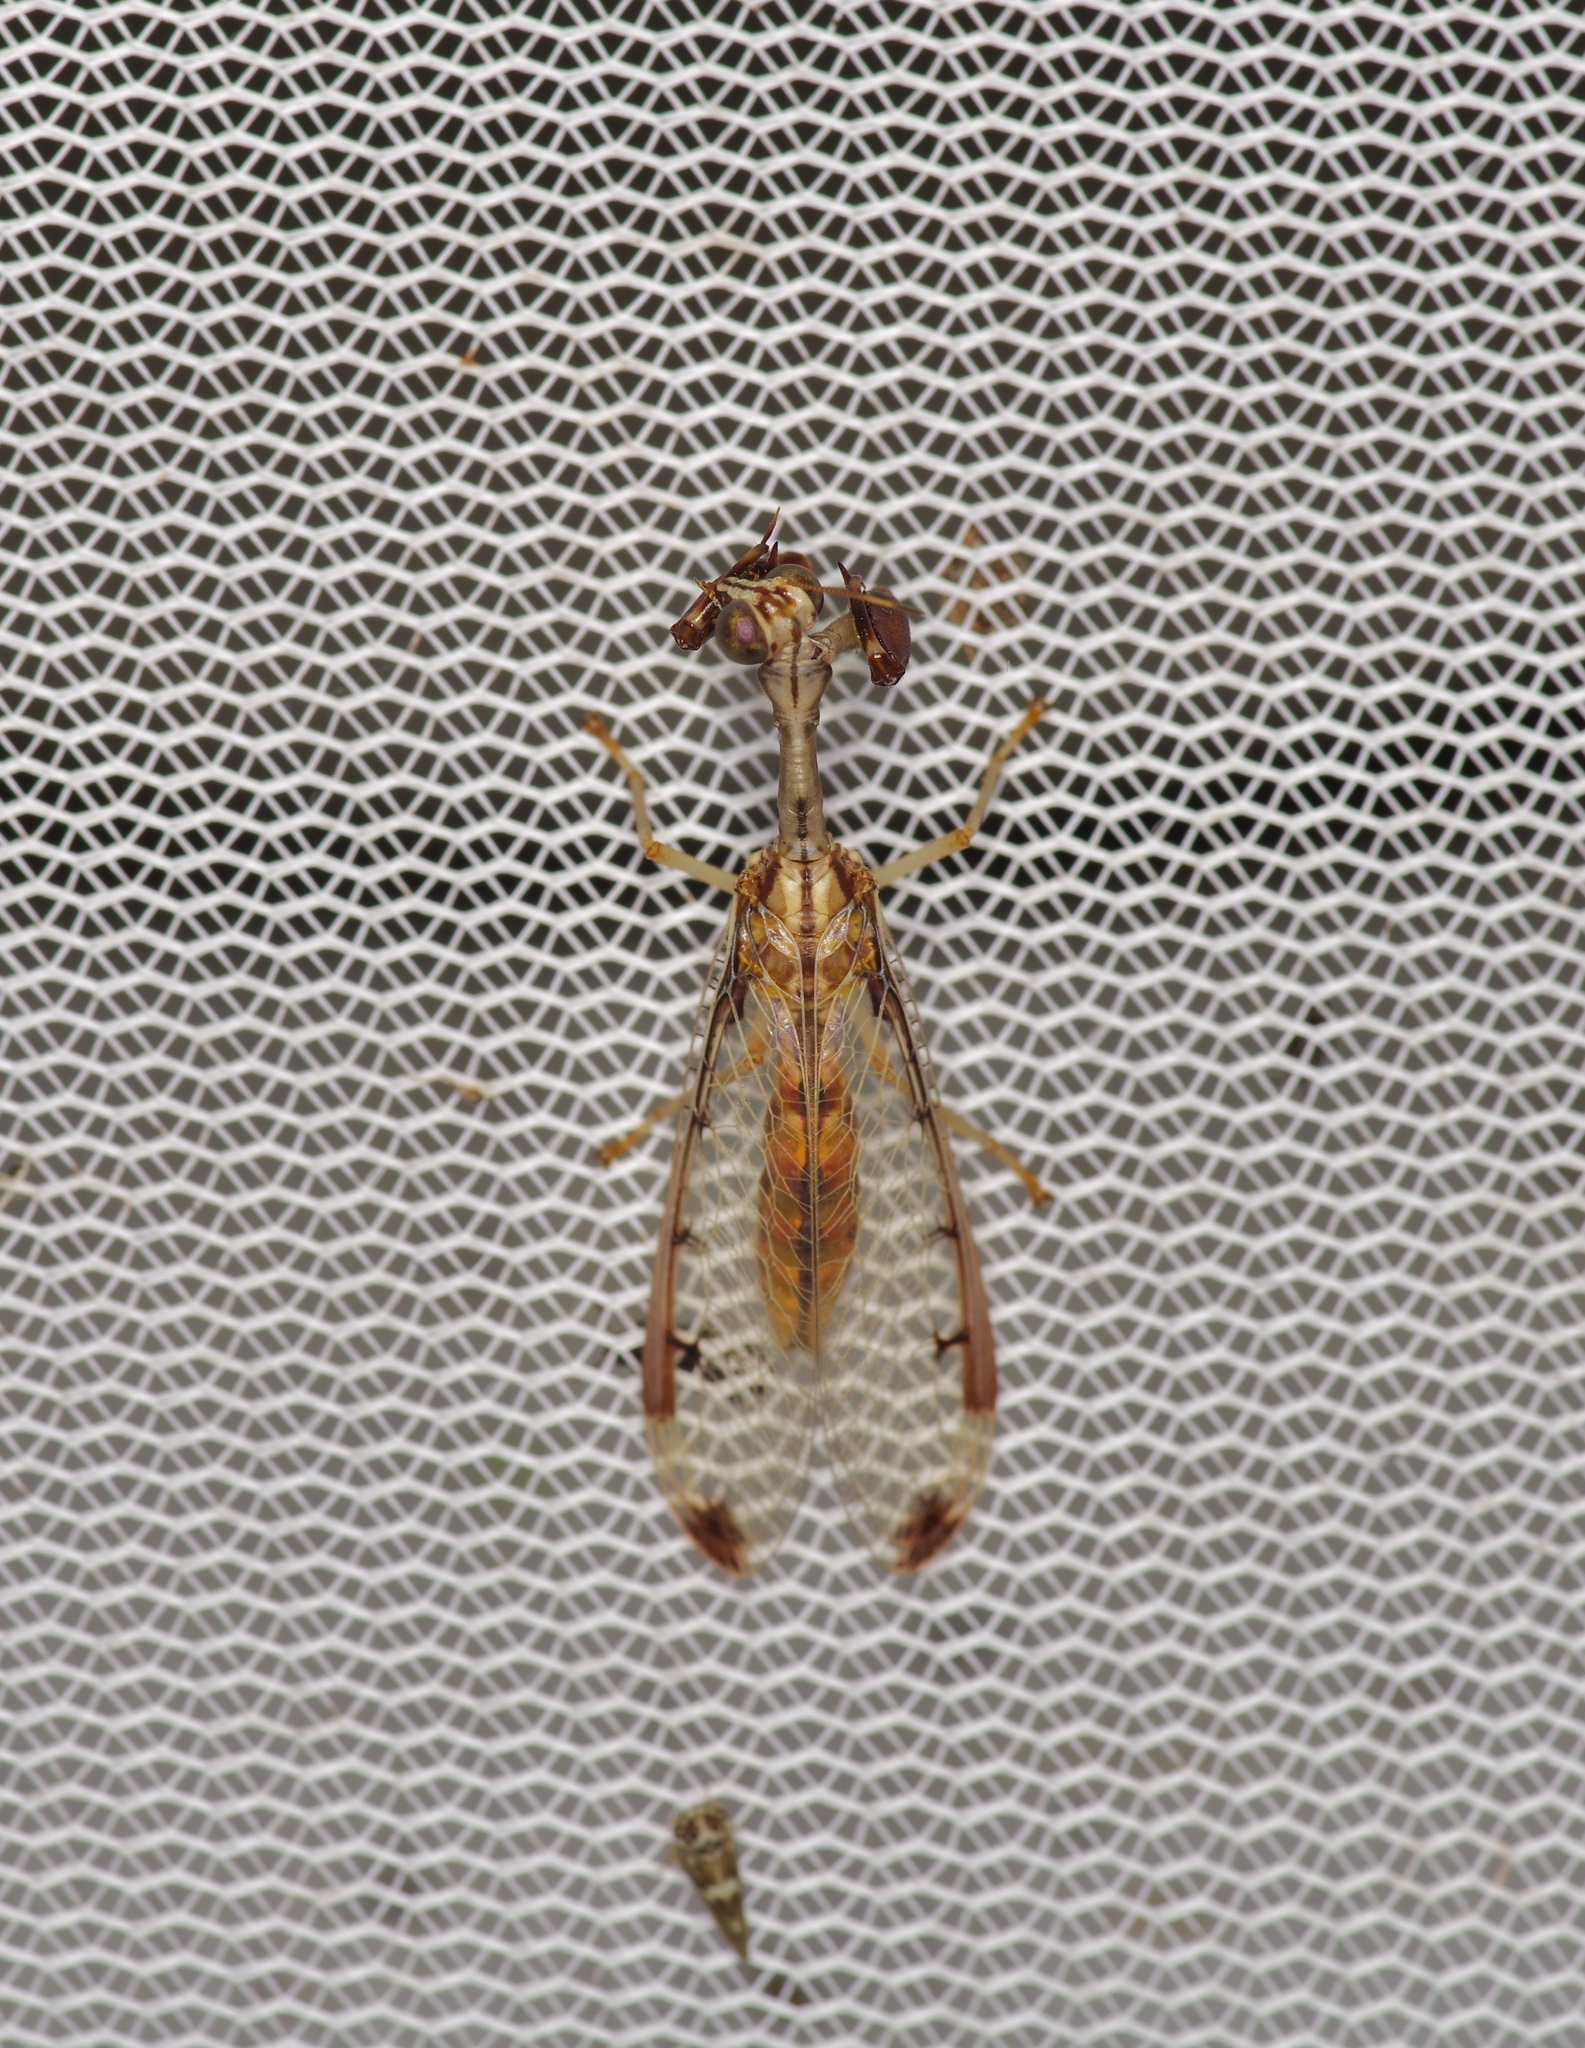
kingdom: Animalia
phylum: Arthropoda
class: Insecta
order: Neuroptera
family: Mantispidae
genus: Dicromantispa
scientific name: Dicromantispa interrupta
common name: Four-spotted mantidfly
